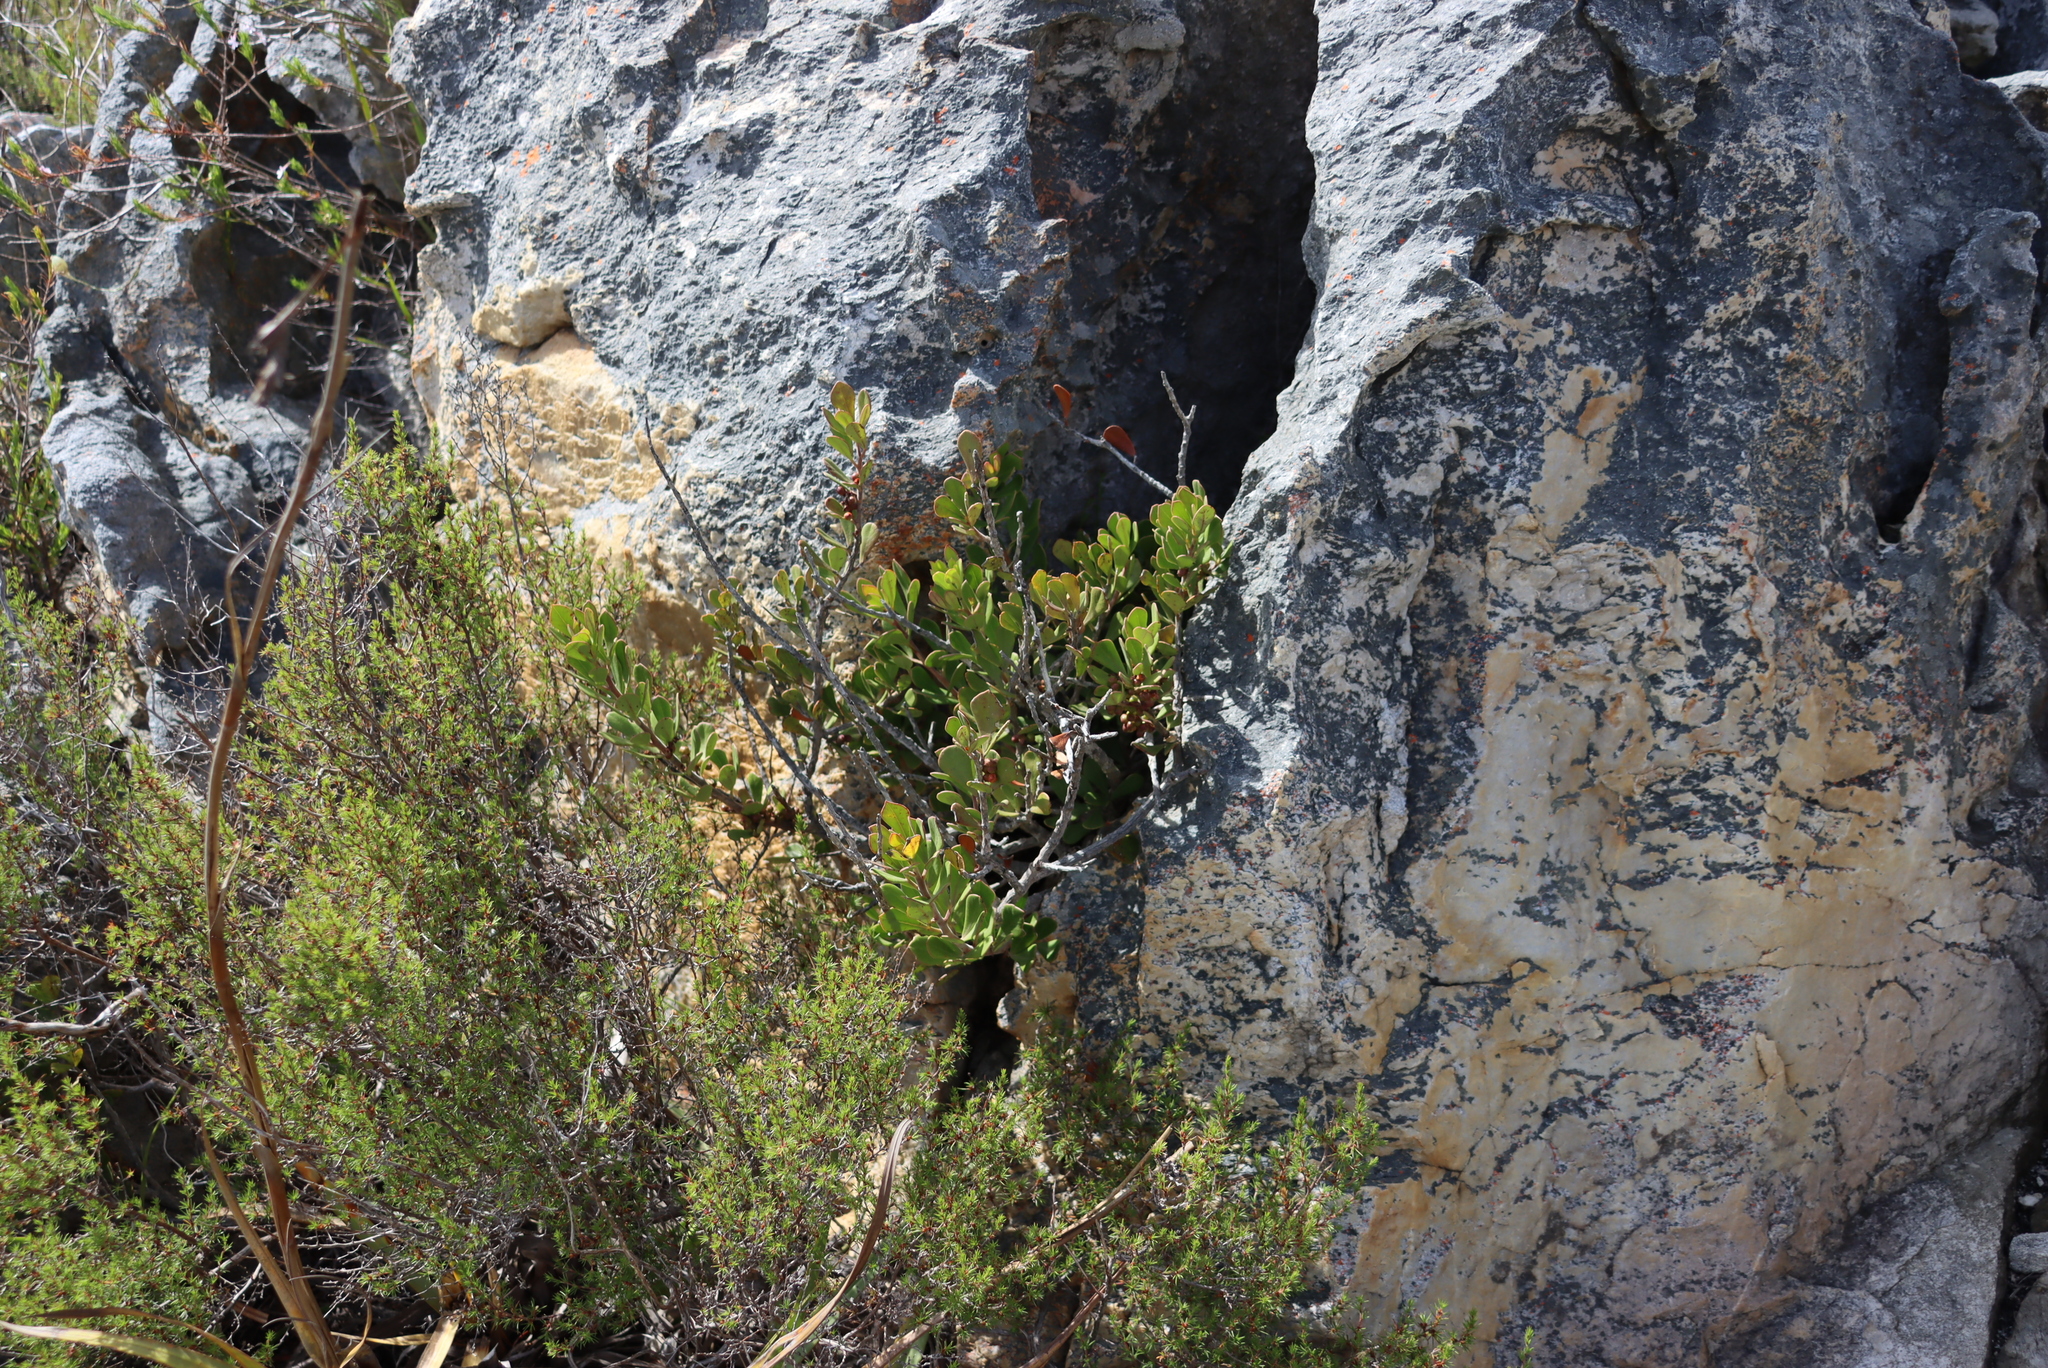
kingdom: Plantae
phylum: Tracheophyta
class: Magnoliopsida
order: Sapindales
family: Anacardiaceae
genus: Searsia
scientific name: Searsia scytophylla
